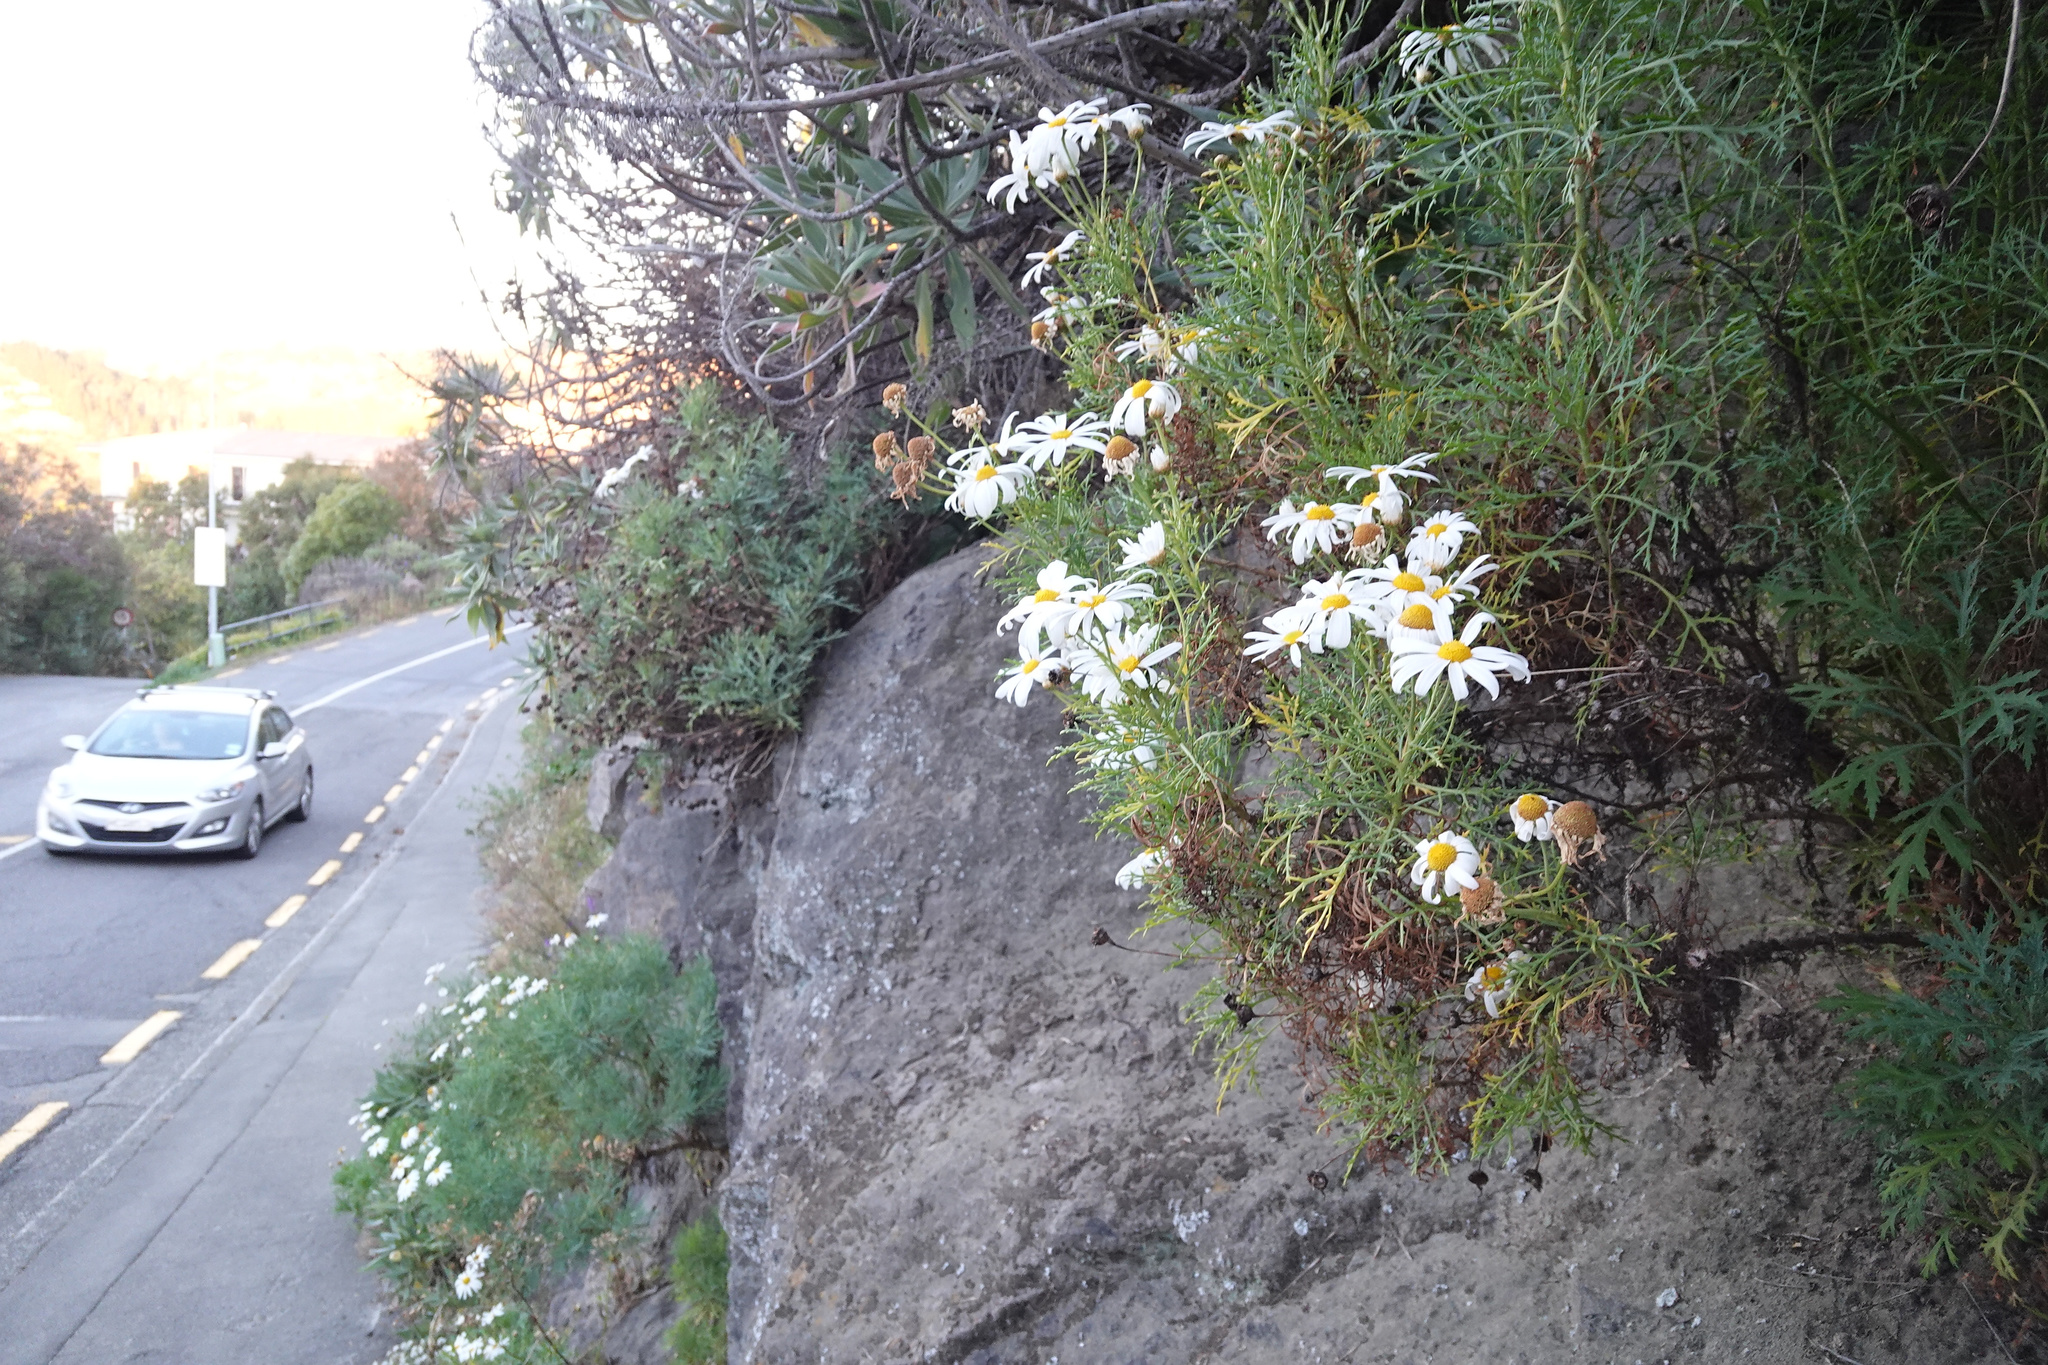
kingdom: Plantae
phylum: Tracheophyta
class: Magnoliopsida
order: Asterales
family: Asteraceae
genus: Argyranthemum
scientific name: Argyranthemum frutescens
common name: Paris daisy
